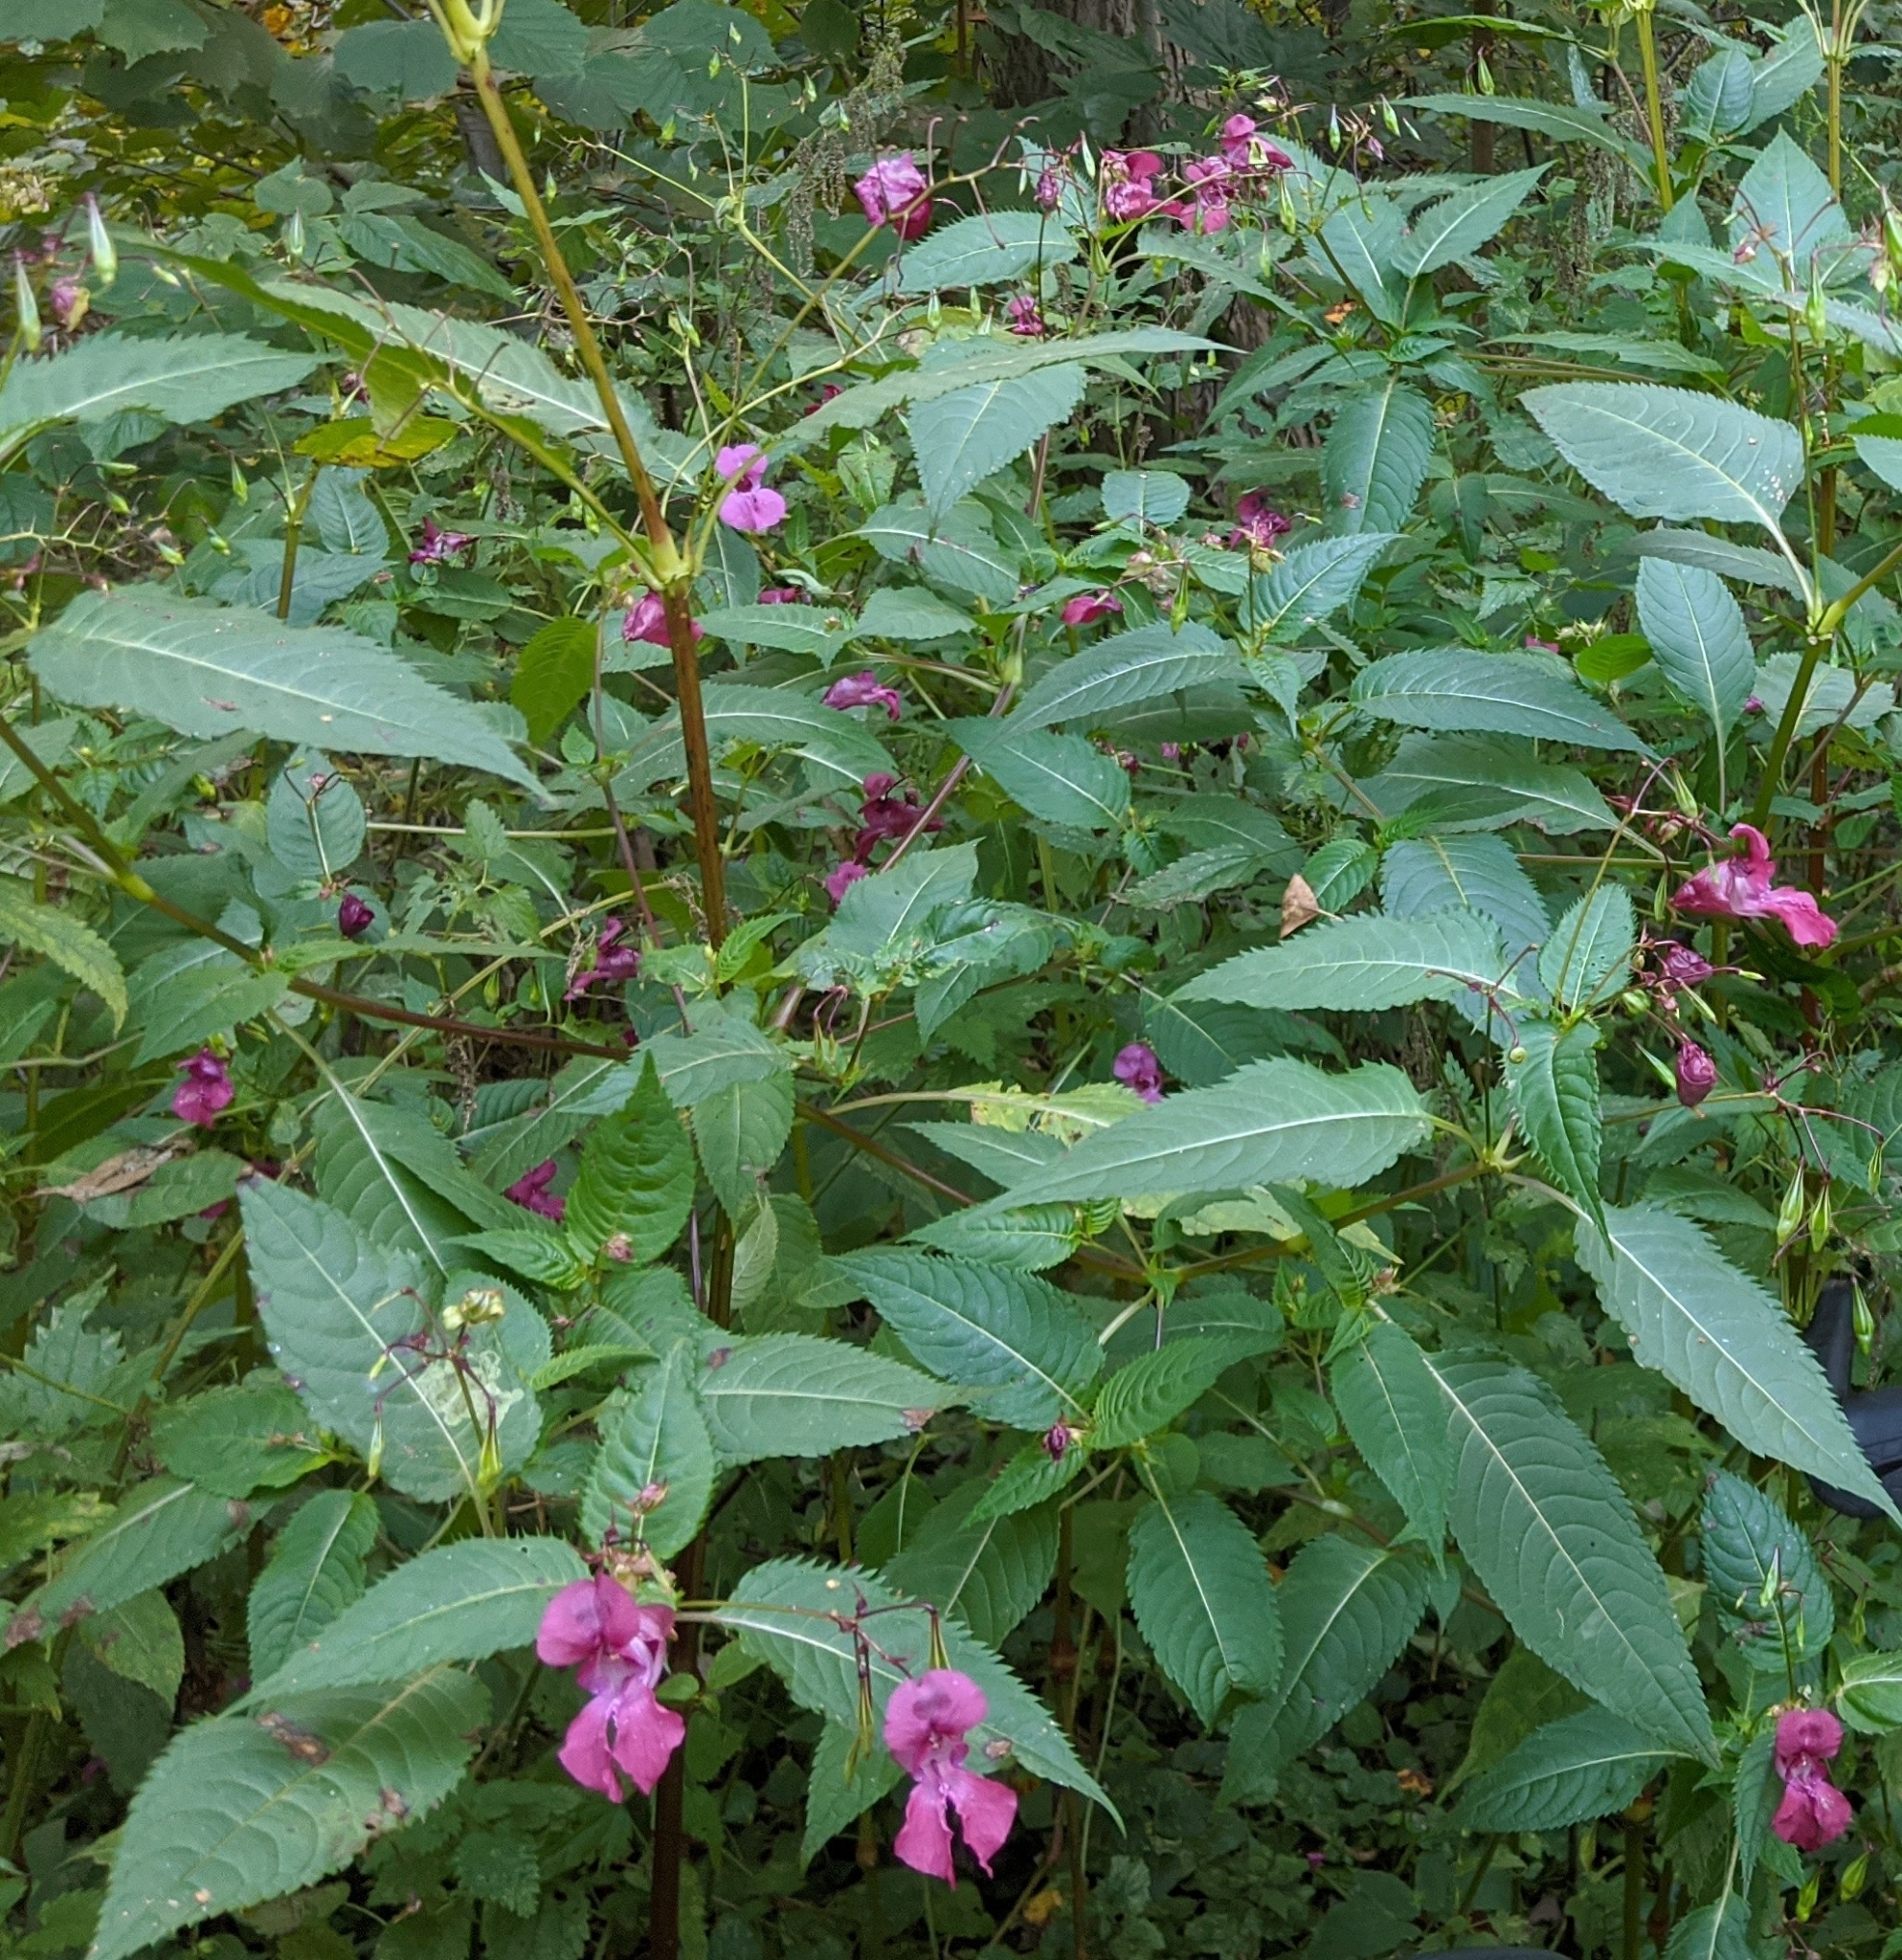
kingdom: Plantae
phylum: Tracheophyta
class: Magnoliopsida
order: Ericales
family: Balsaminaceae
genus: Impatiens
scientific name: Impatiens glandulifera
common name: Himalayan balsam
